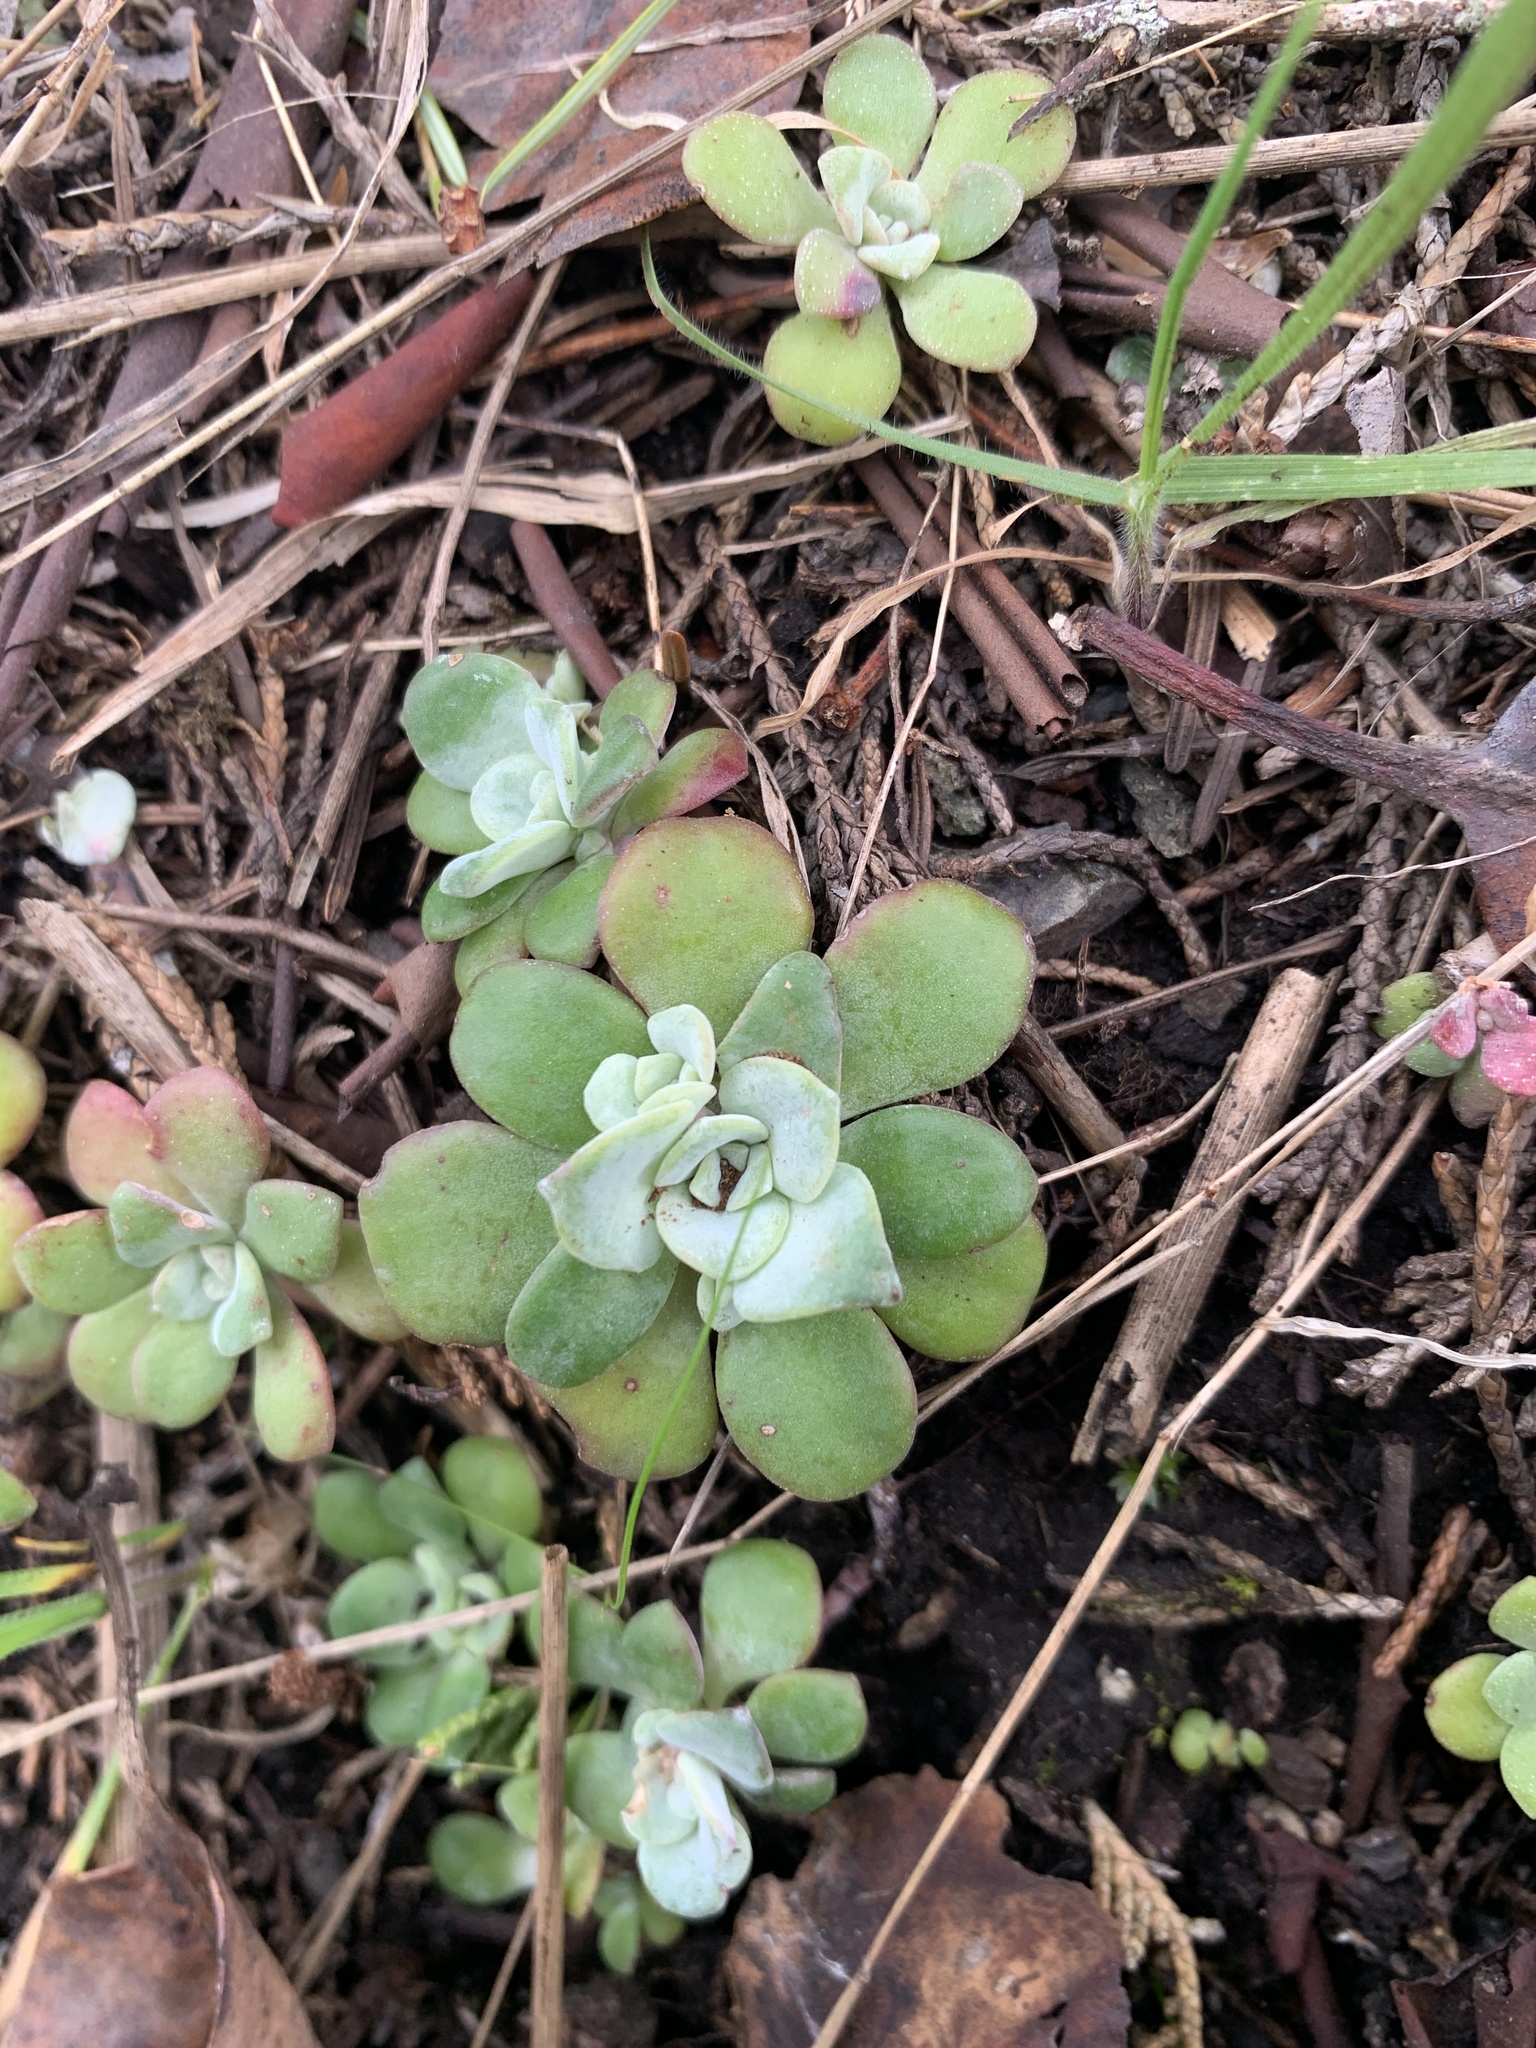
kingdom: Plantae
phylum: Tracheophyta
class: Magnoliopsida
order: Saxifragales
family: Crassulaceae
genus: Sedum
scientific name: Sedum spathulifolium
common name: Colorado stonecrop
